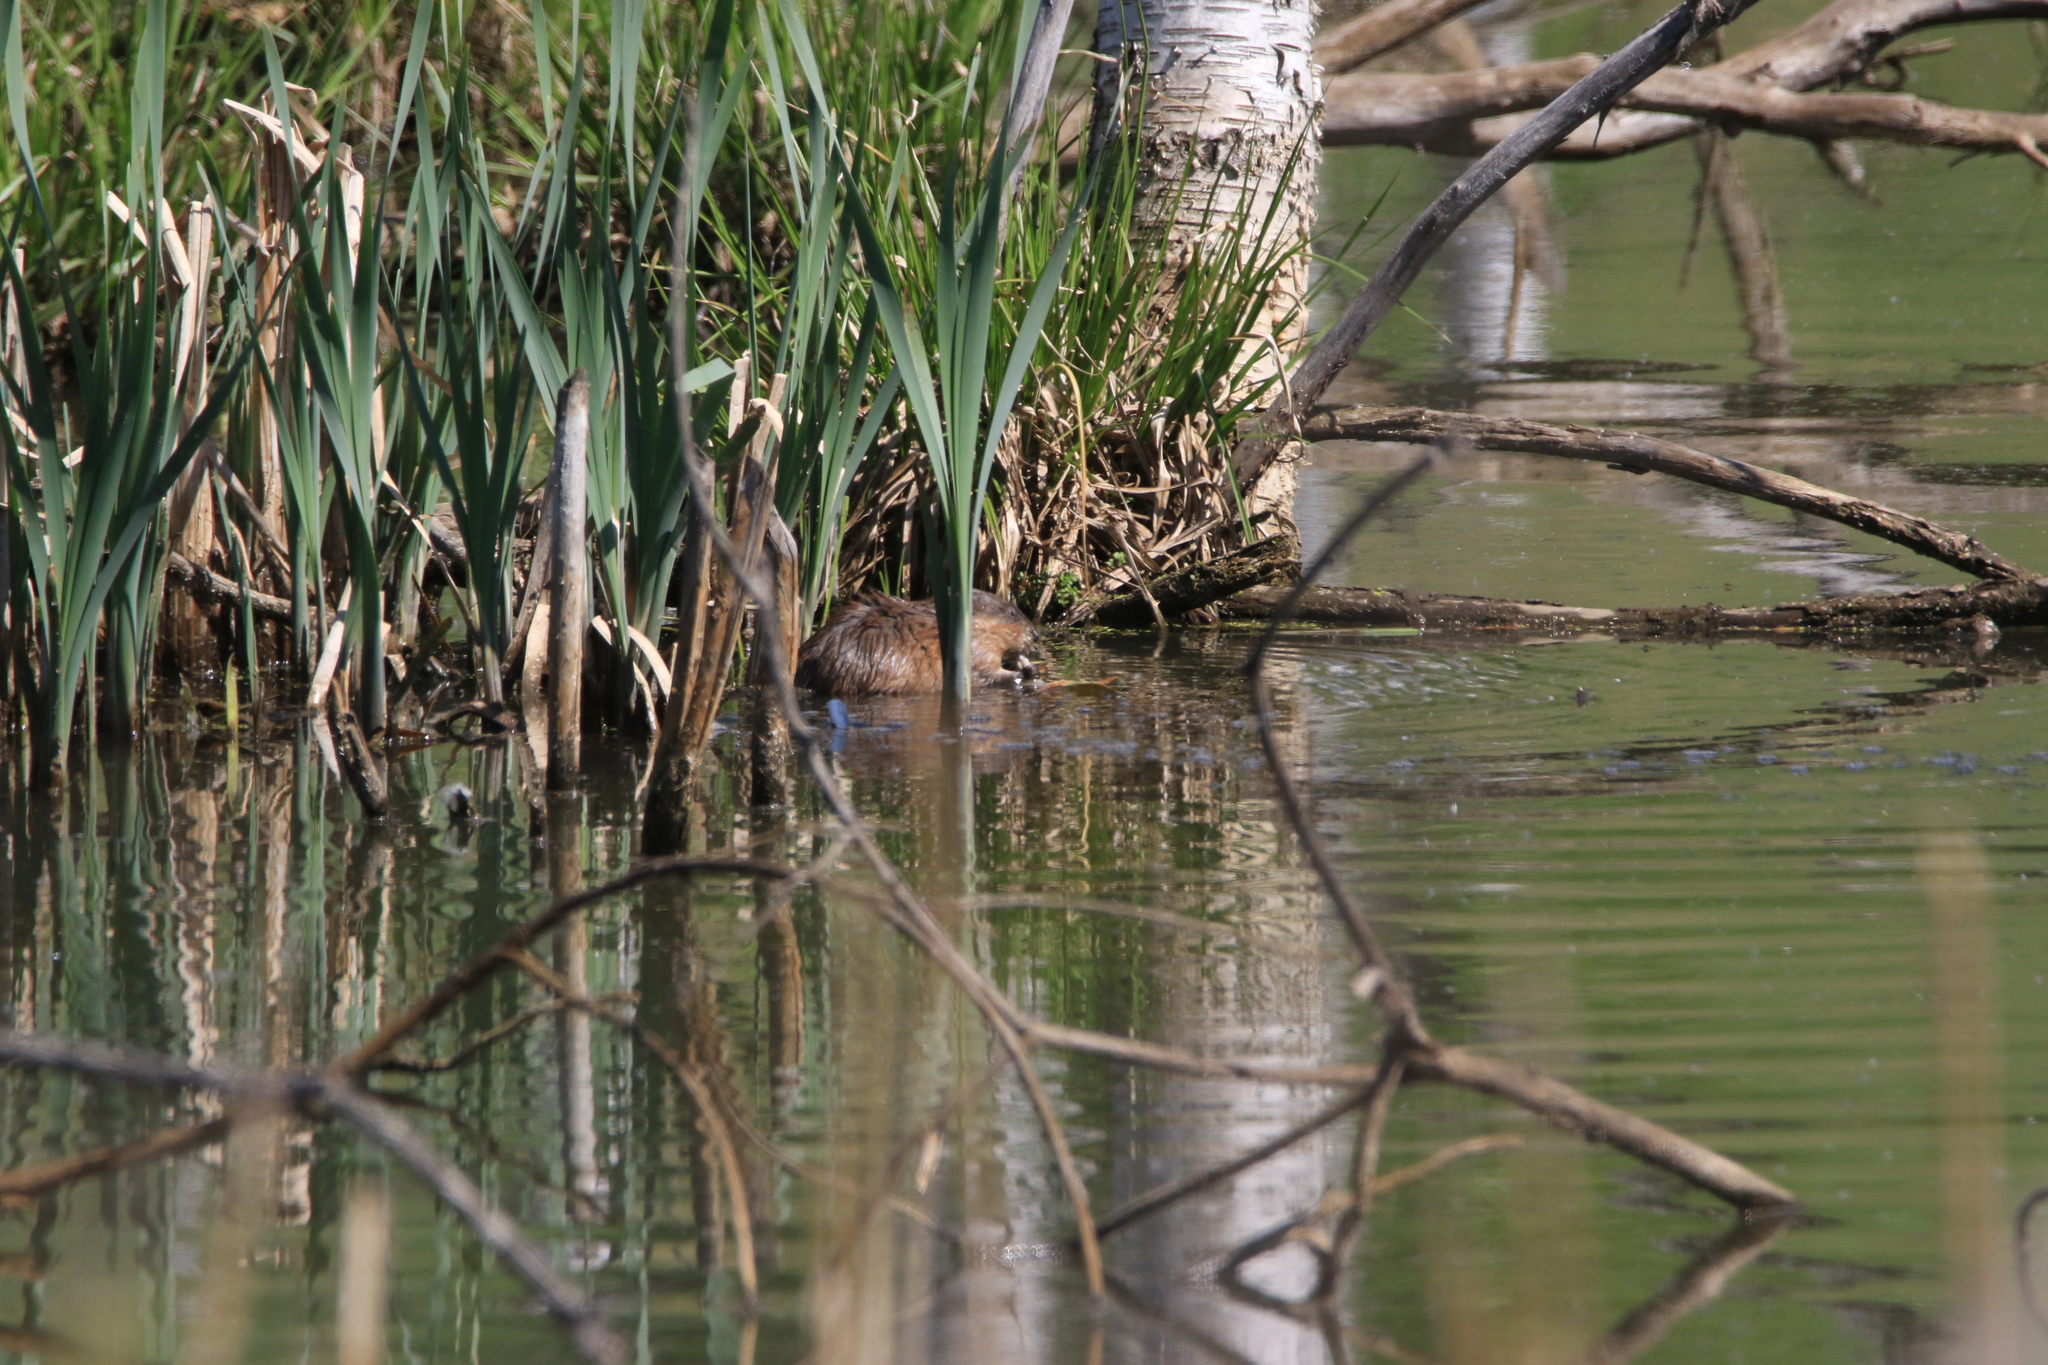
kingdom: Animalia
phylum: Chordata
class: Mammalia
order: Rodentia
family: Cricetidae
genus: Ondatra
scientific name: Ondatra zibethicus
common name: Muskrat
